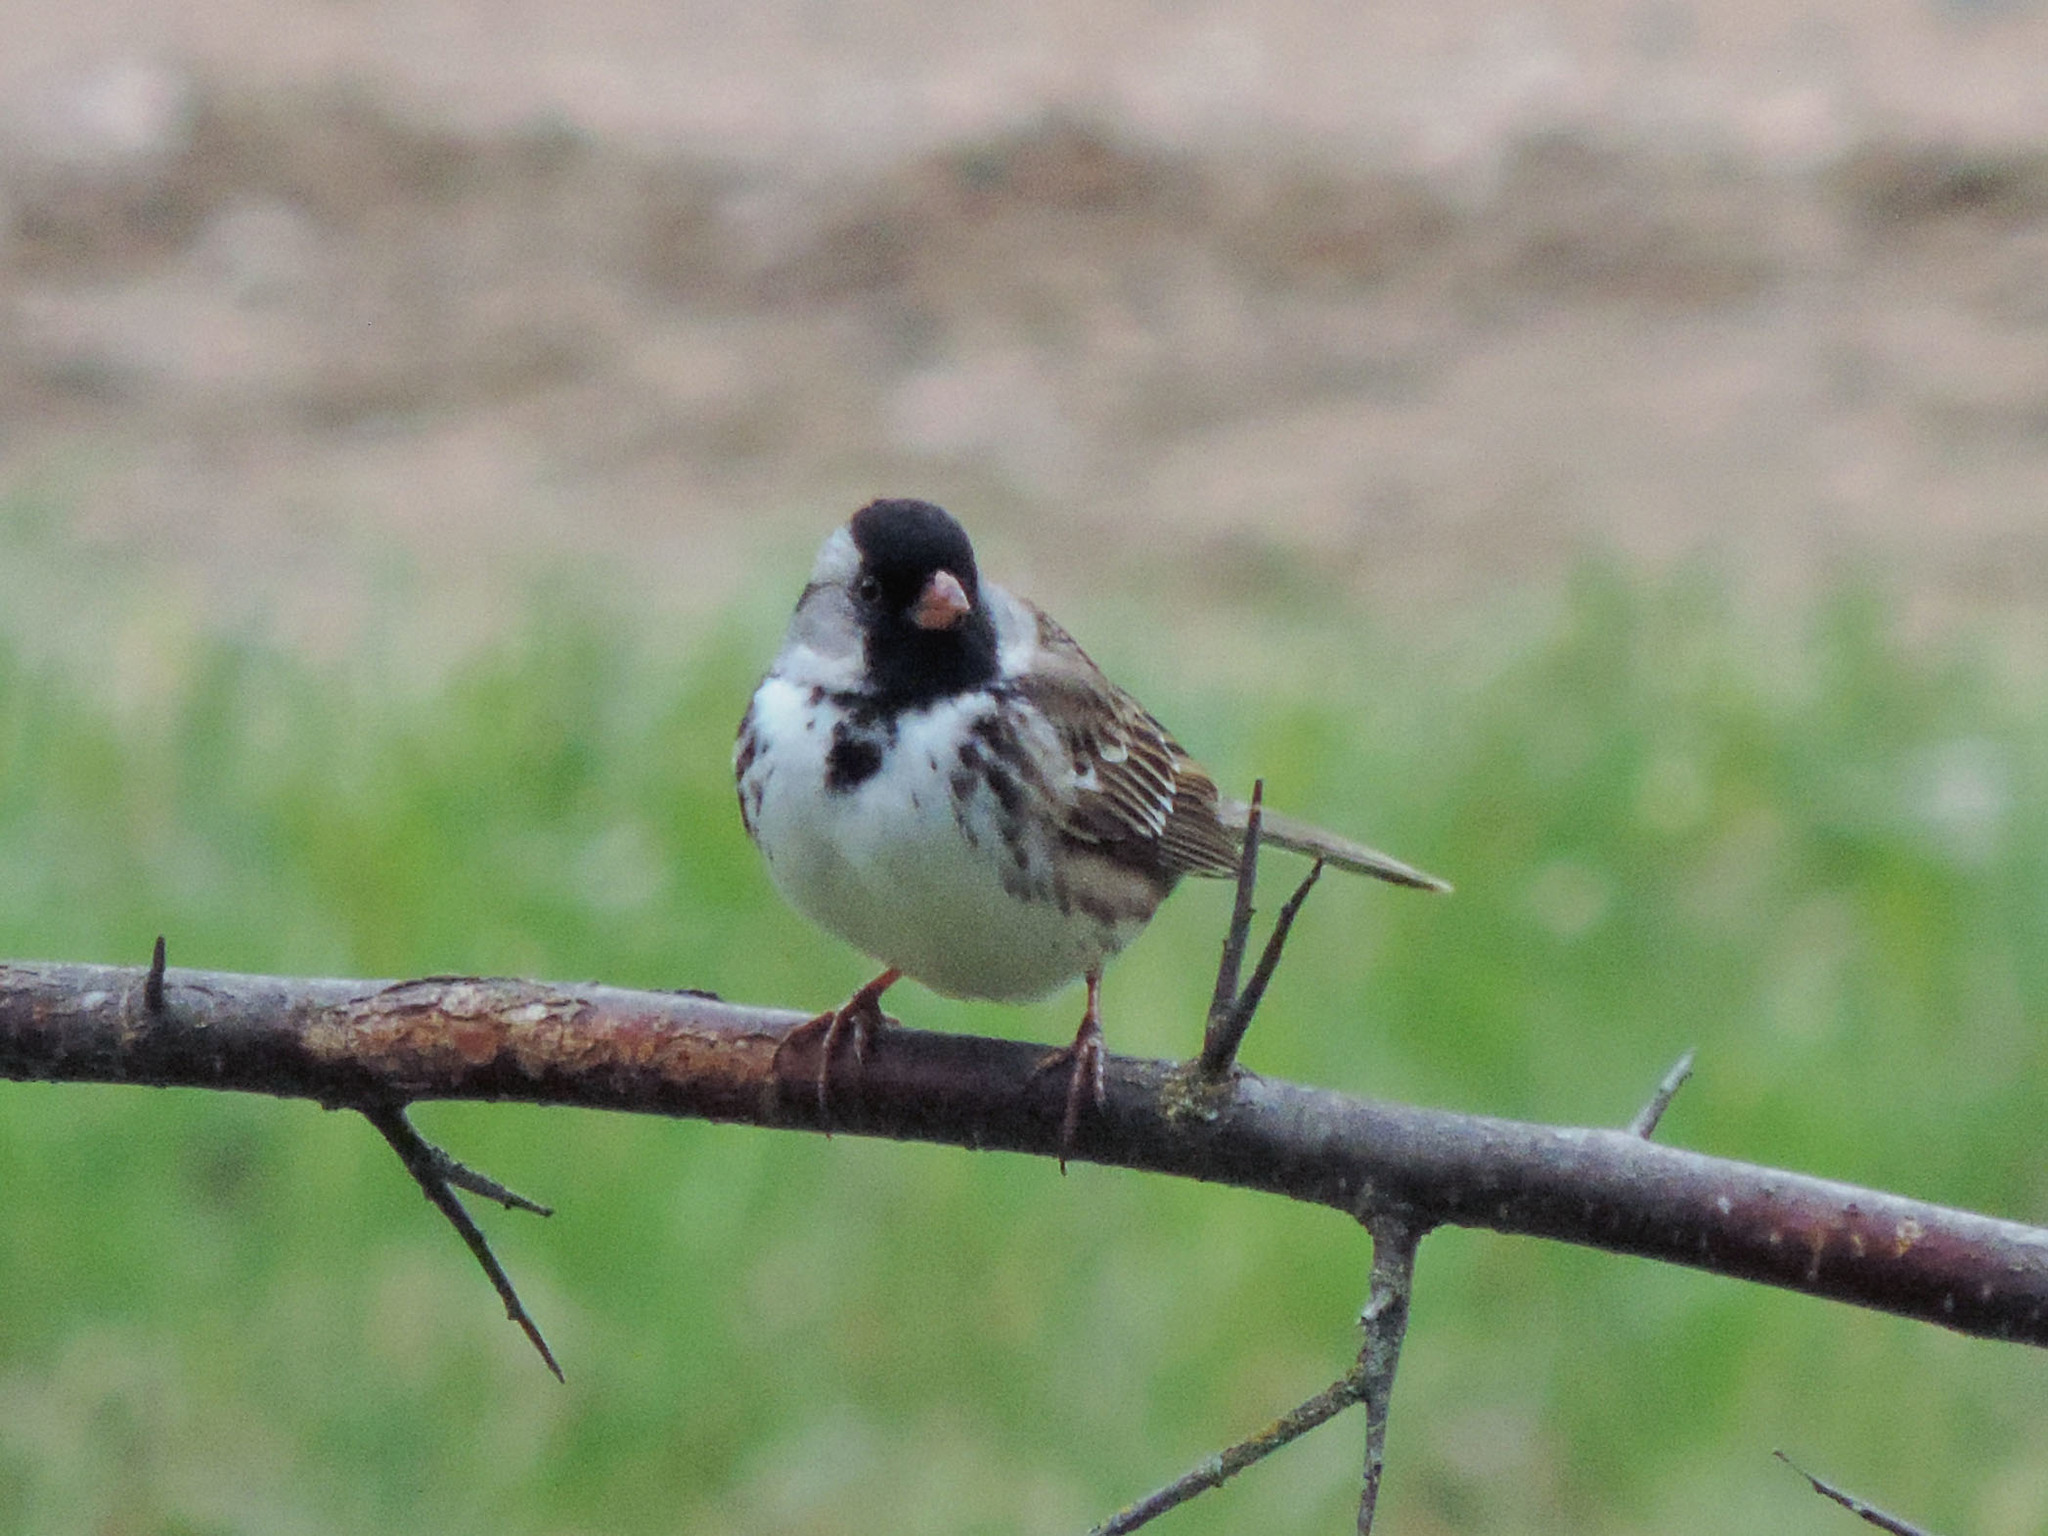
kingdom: Animalia
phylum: Chordata
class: Aves
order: Passeriformes
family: Passerellidae
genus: Zonotrichia
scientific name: Zonotrichia querula
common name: Harris's sparrow
